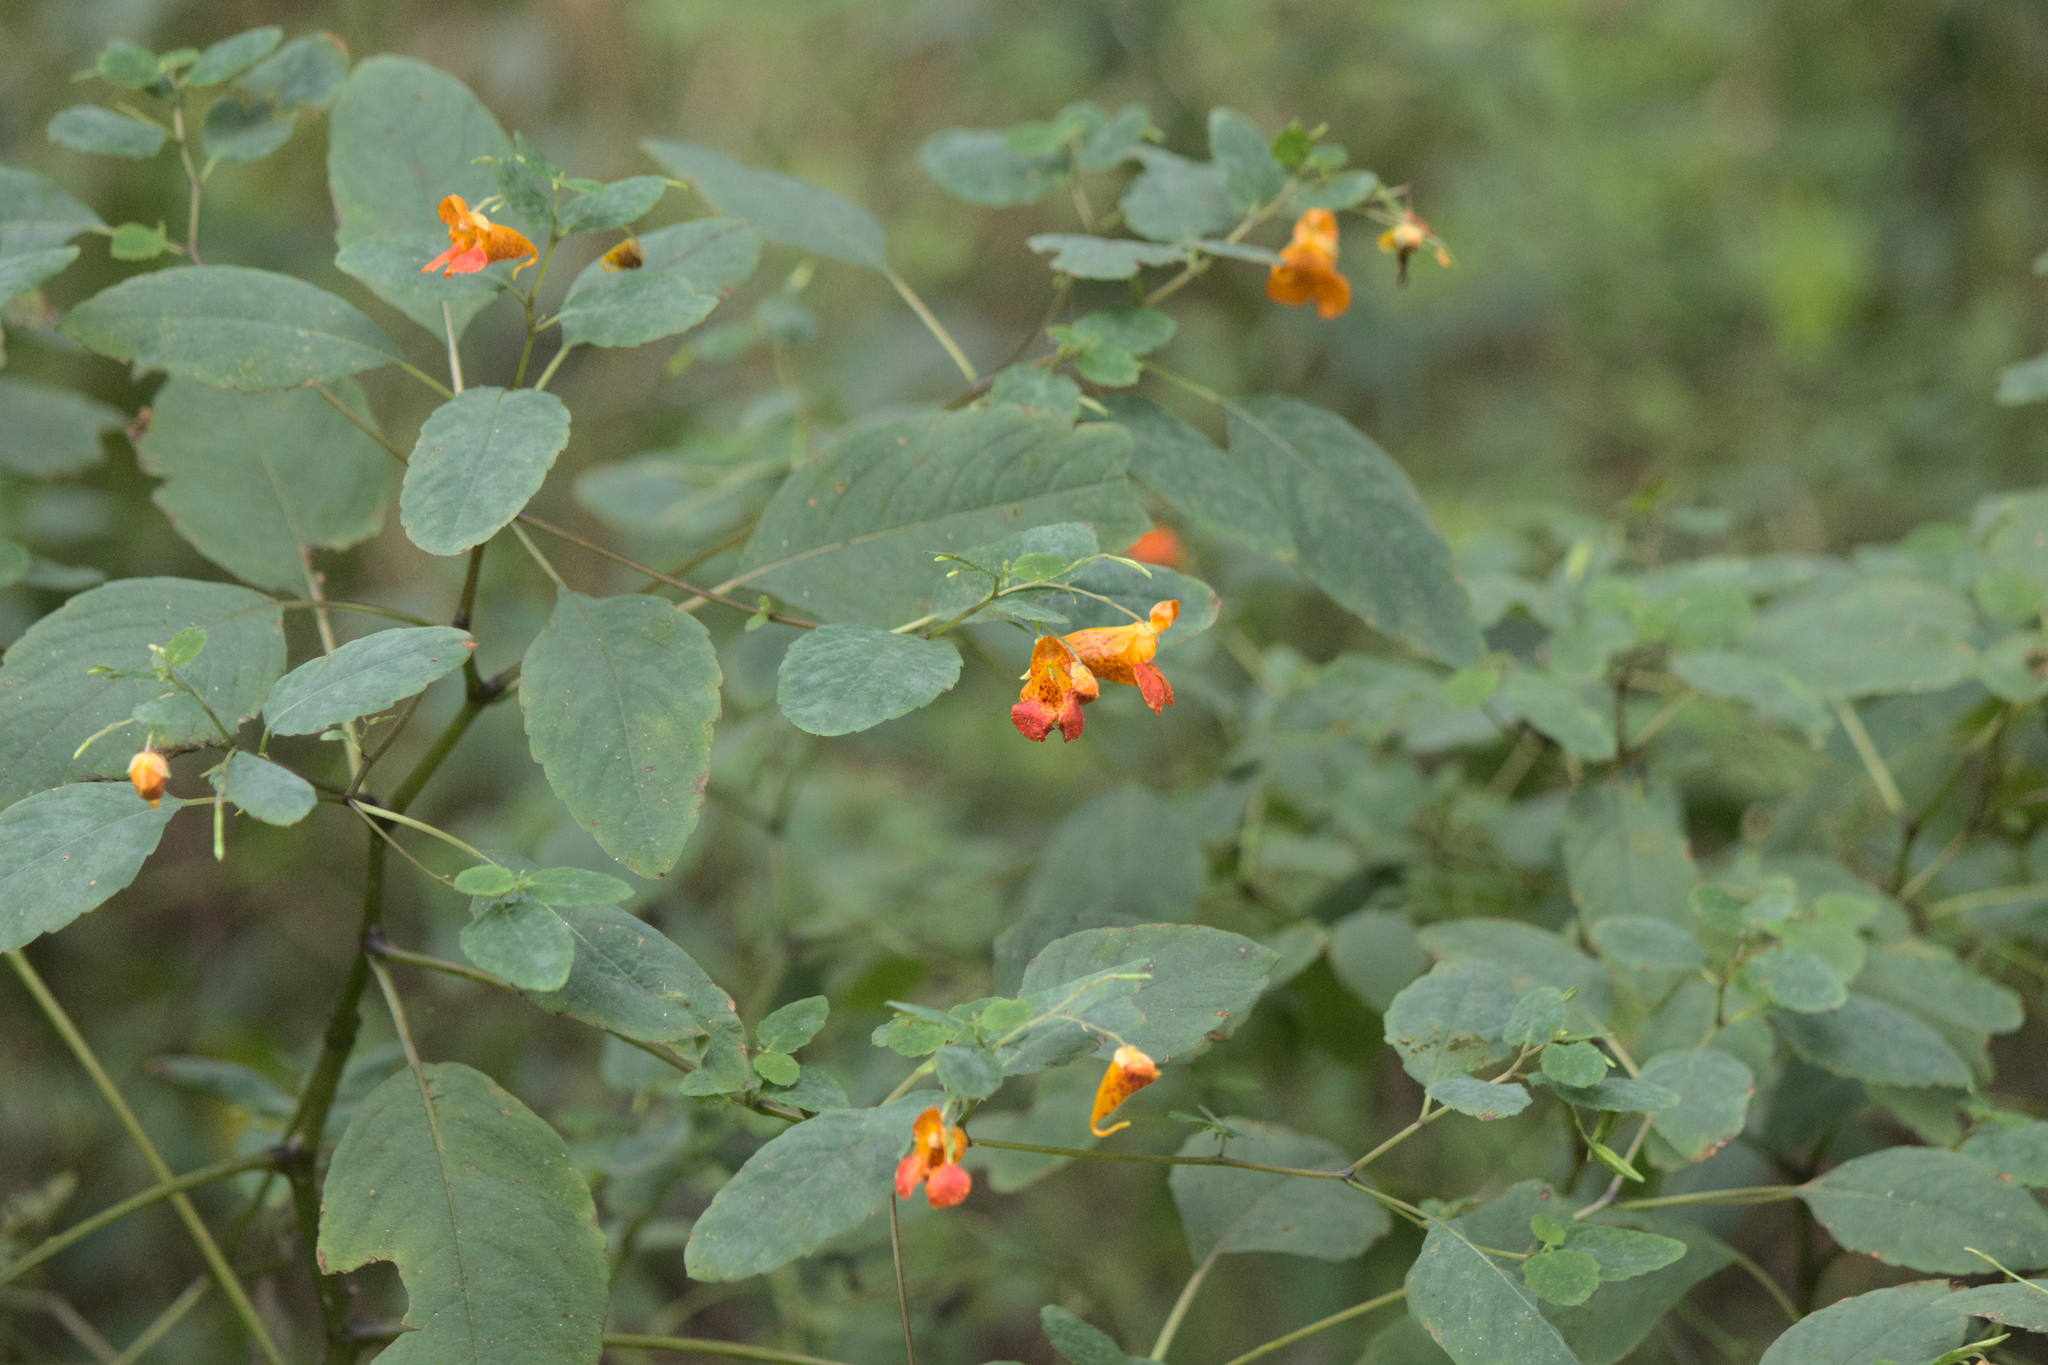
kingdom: Plantae
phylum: Tracheophyta
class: Magnoliopsida
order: Ericales
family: Balsaminaceae
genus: Impatiens
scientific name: Impatiens capensis
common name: Orange balsam
